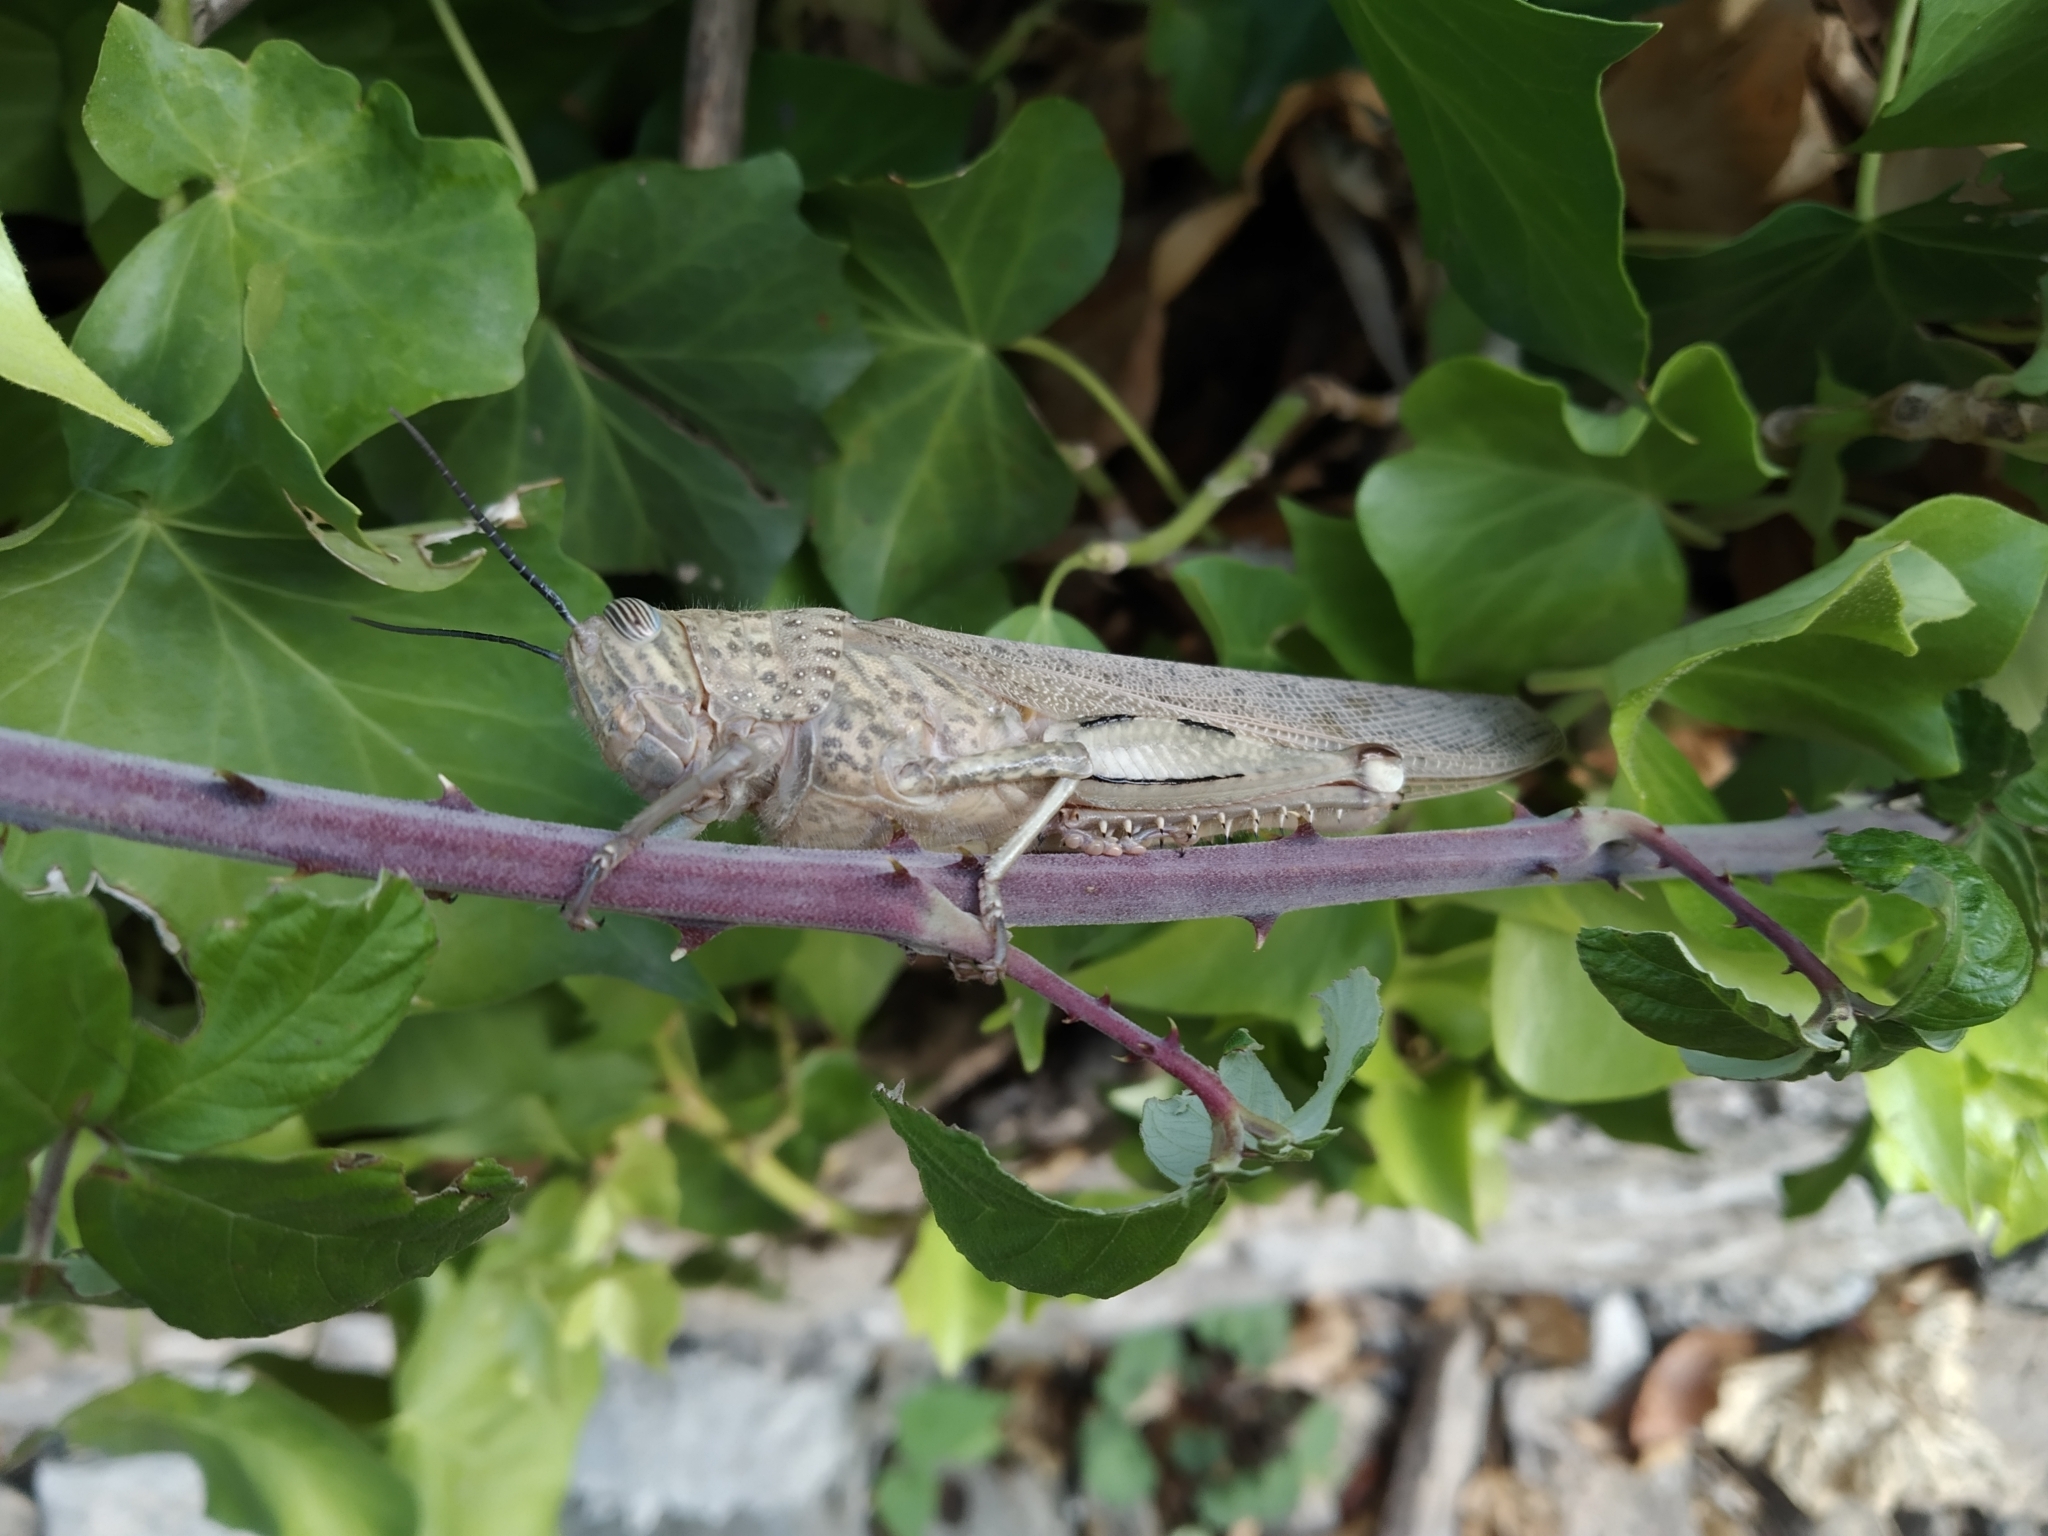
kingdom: Animalia
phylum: Arthropoda
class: Insecta
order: Orthoptera
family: Acrididae
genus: Anacridium
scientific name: Anacridium aegyptium
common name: Egyptian grasshopper
